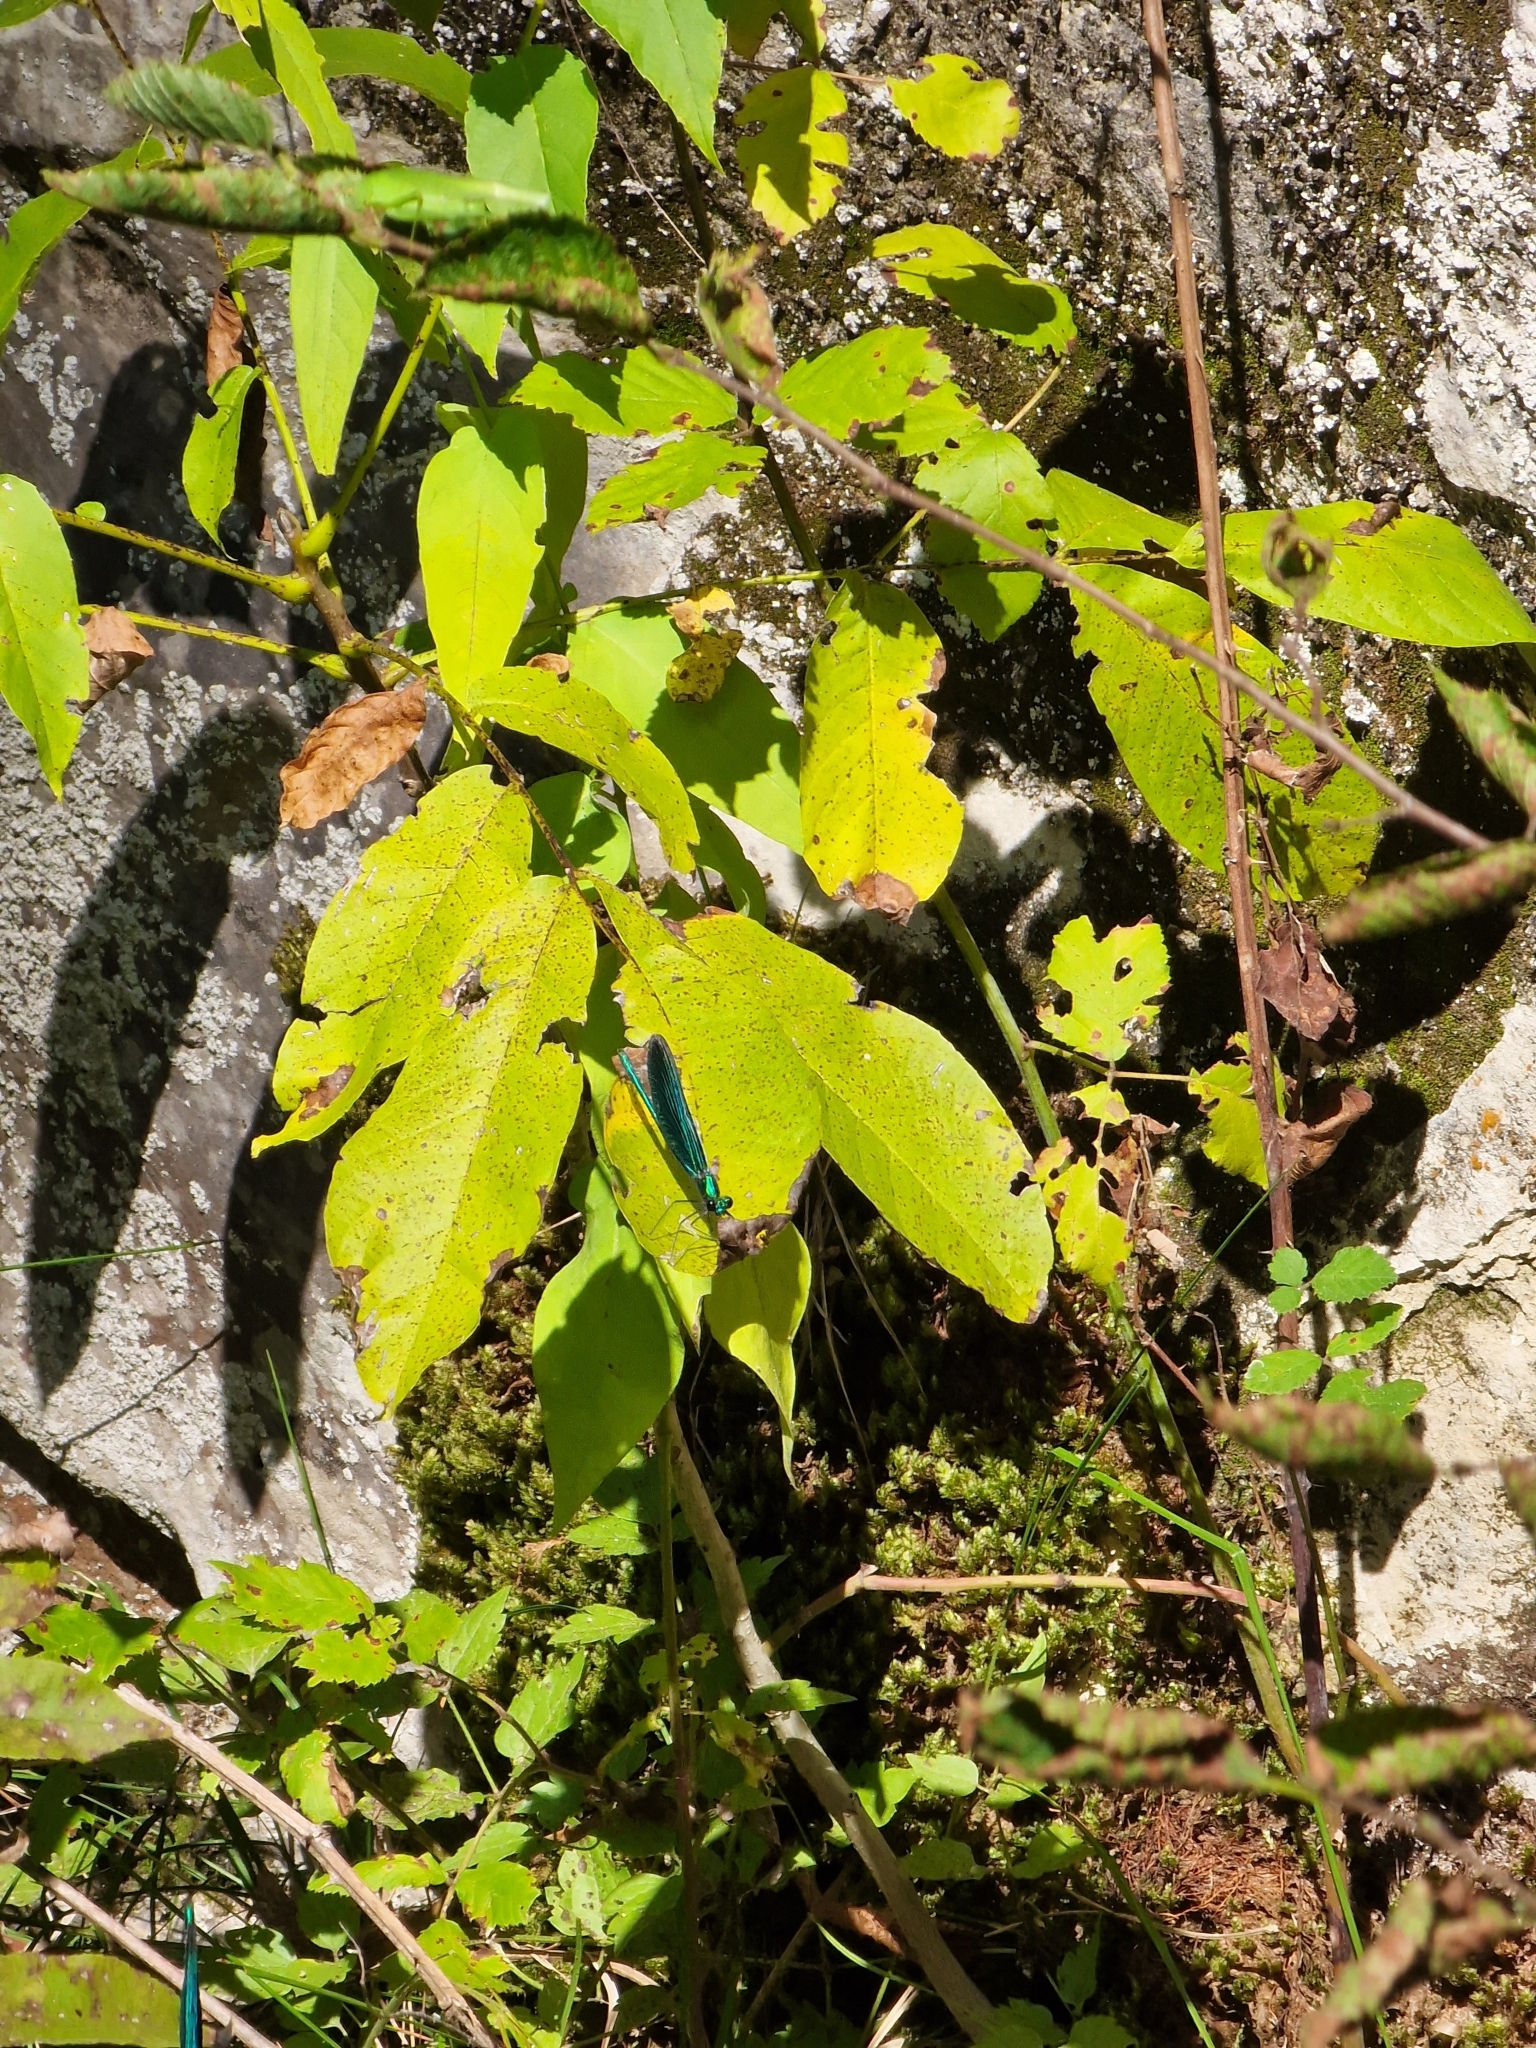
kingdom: Animalia
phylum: Arthropoda
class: Insecta
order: Odonata
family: Calopterygidae
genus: Calopteryx
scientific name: Calopteryx virgo
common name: Beautiful demoiselle
